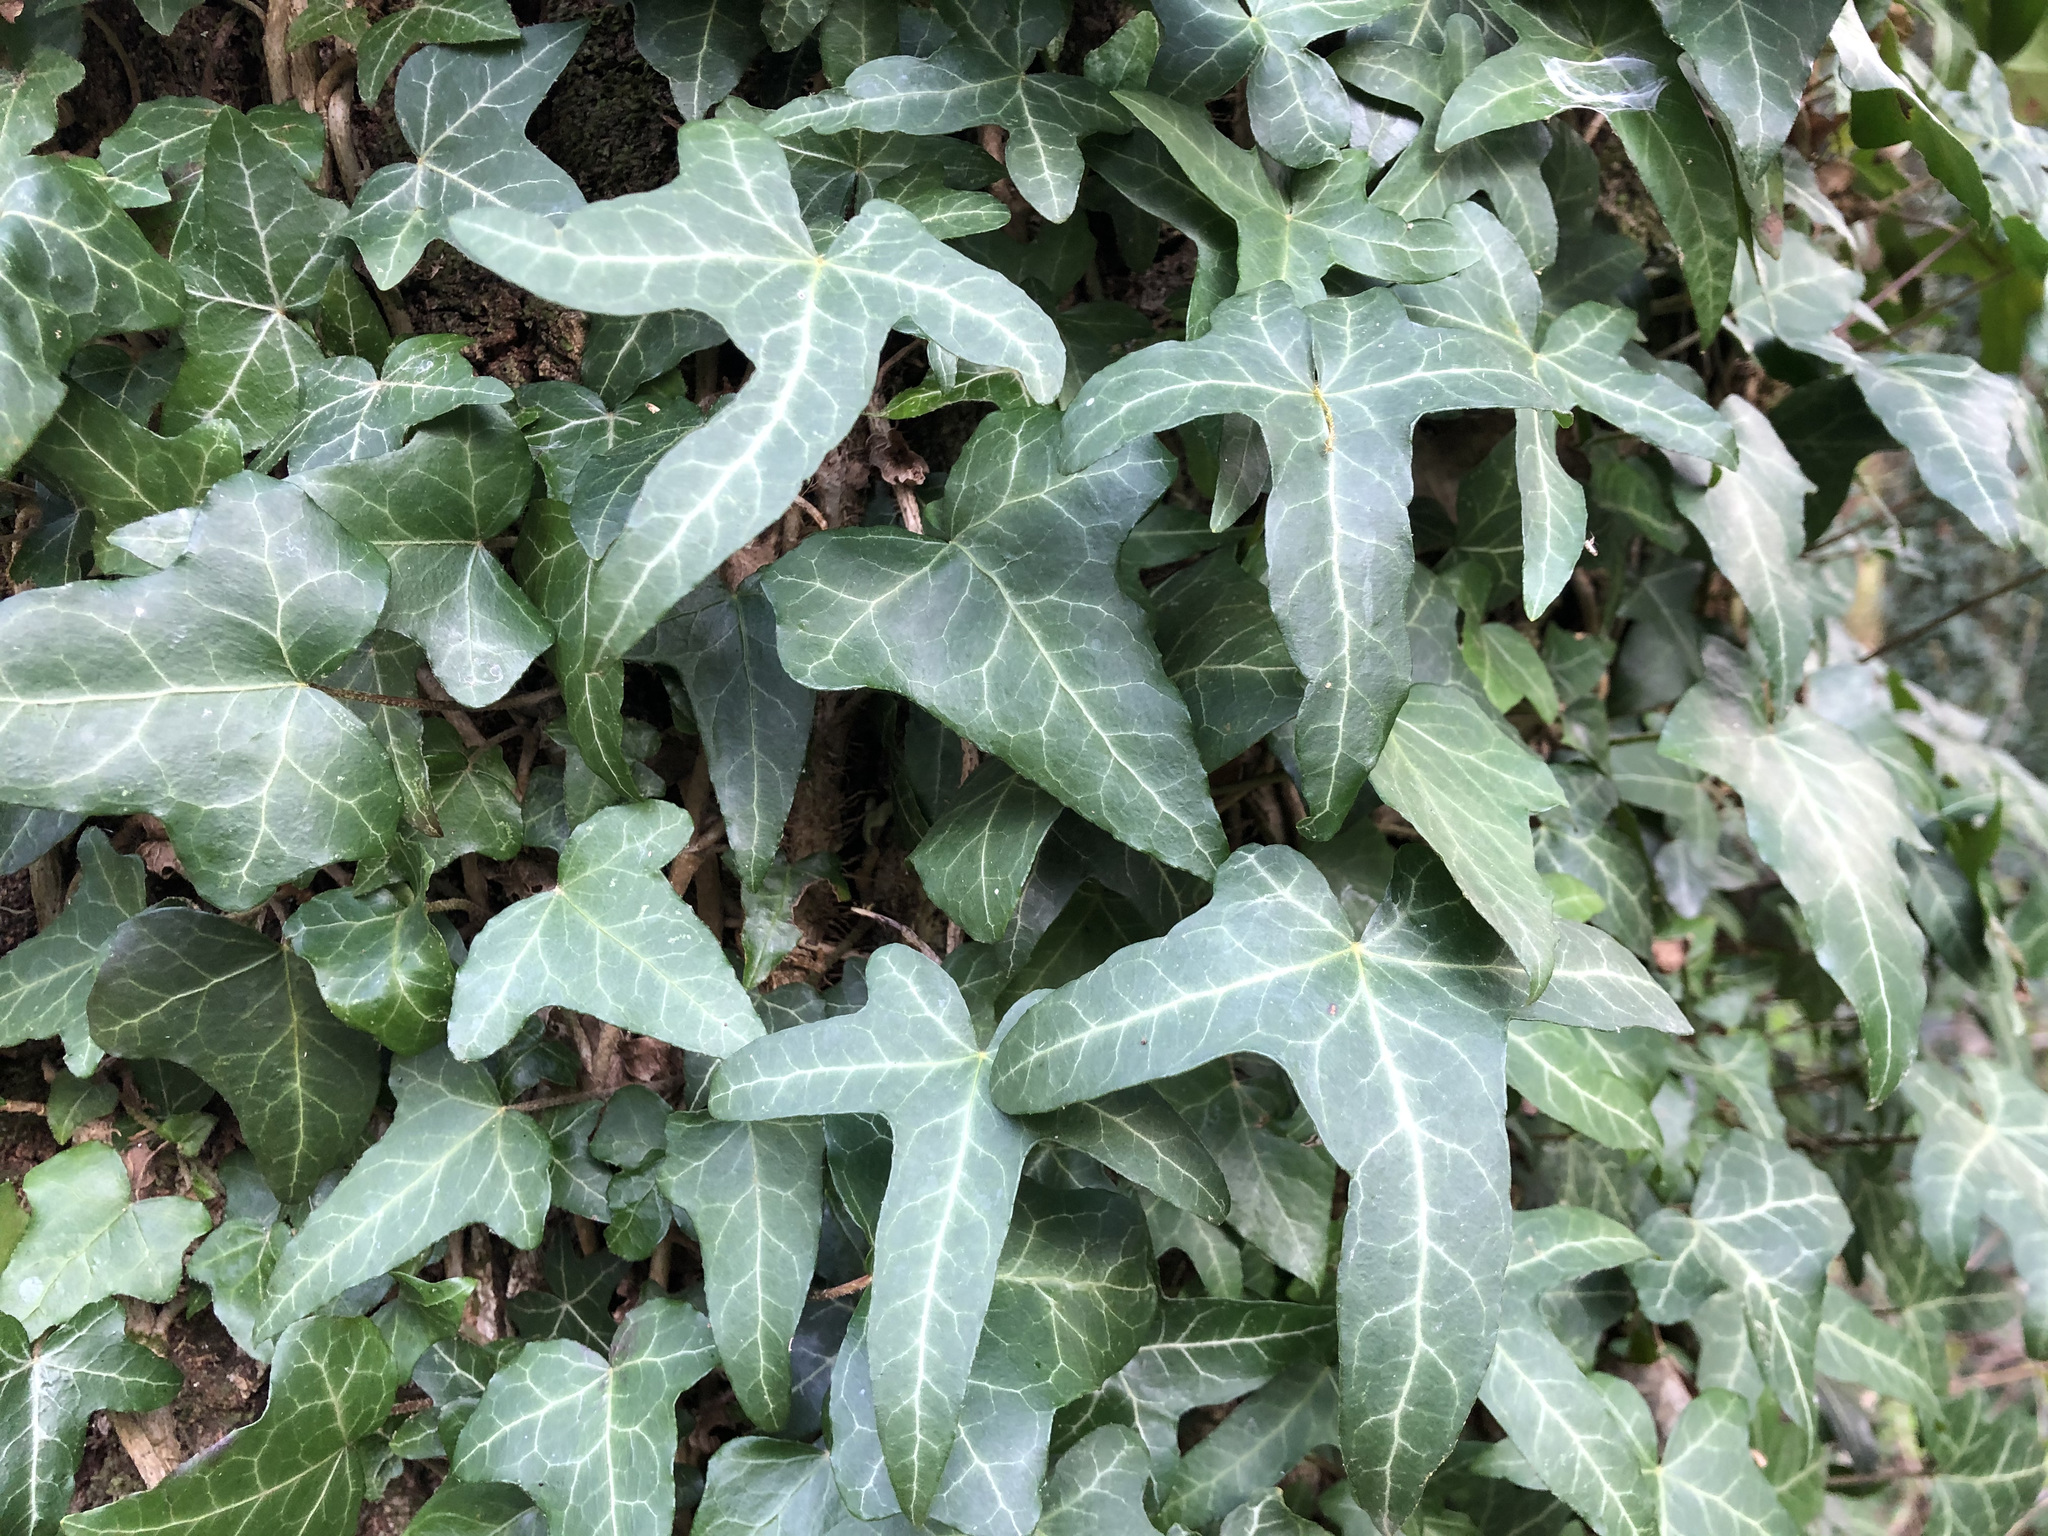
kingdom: Plantae
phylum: Tracheophyta
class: Magnoliopsida
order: Apiales
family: Araliaceae
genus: Hedera
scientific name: Hedera helix
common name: Ivy
